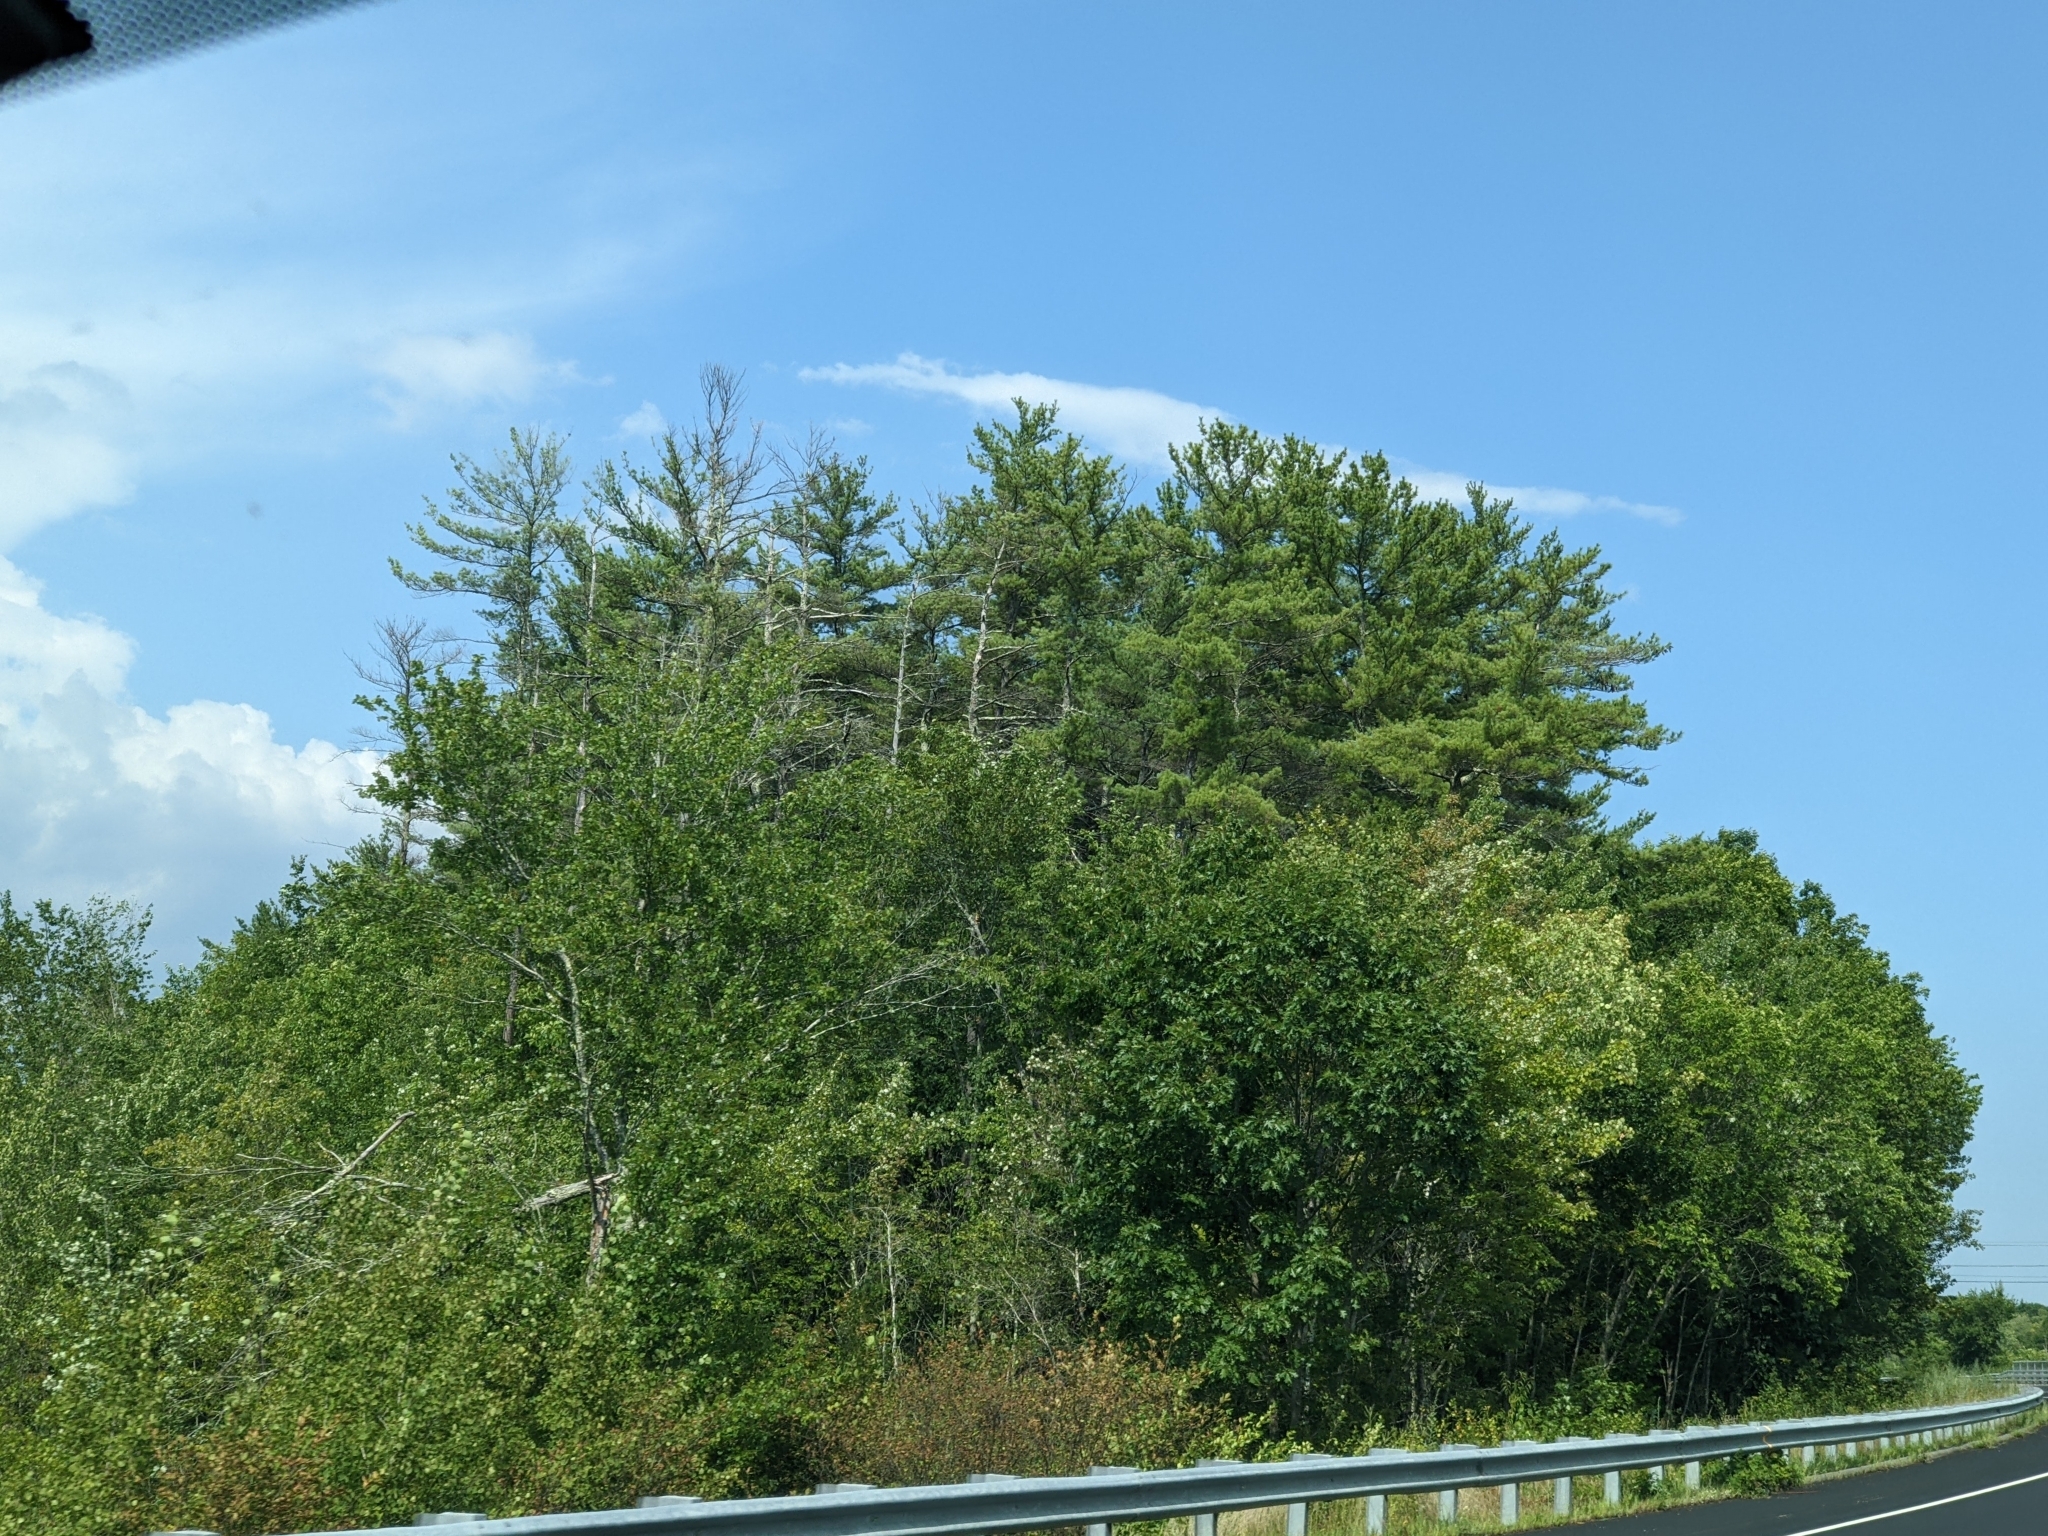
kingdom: Plantae
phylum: Tracheophyta
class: Pinopsida
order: Pinales
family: Pinaceae
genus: Pinus
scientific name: Pinus strobus
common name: Weymouth pine
